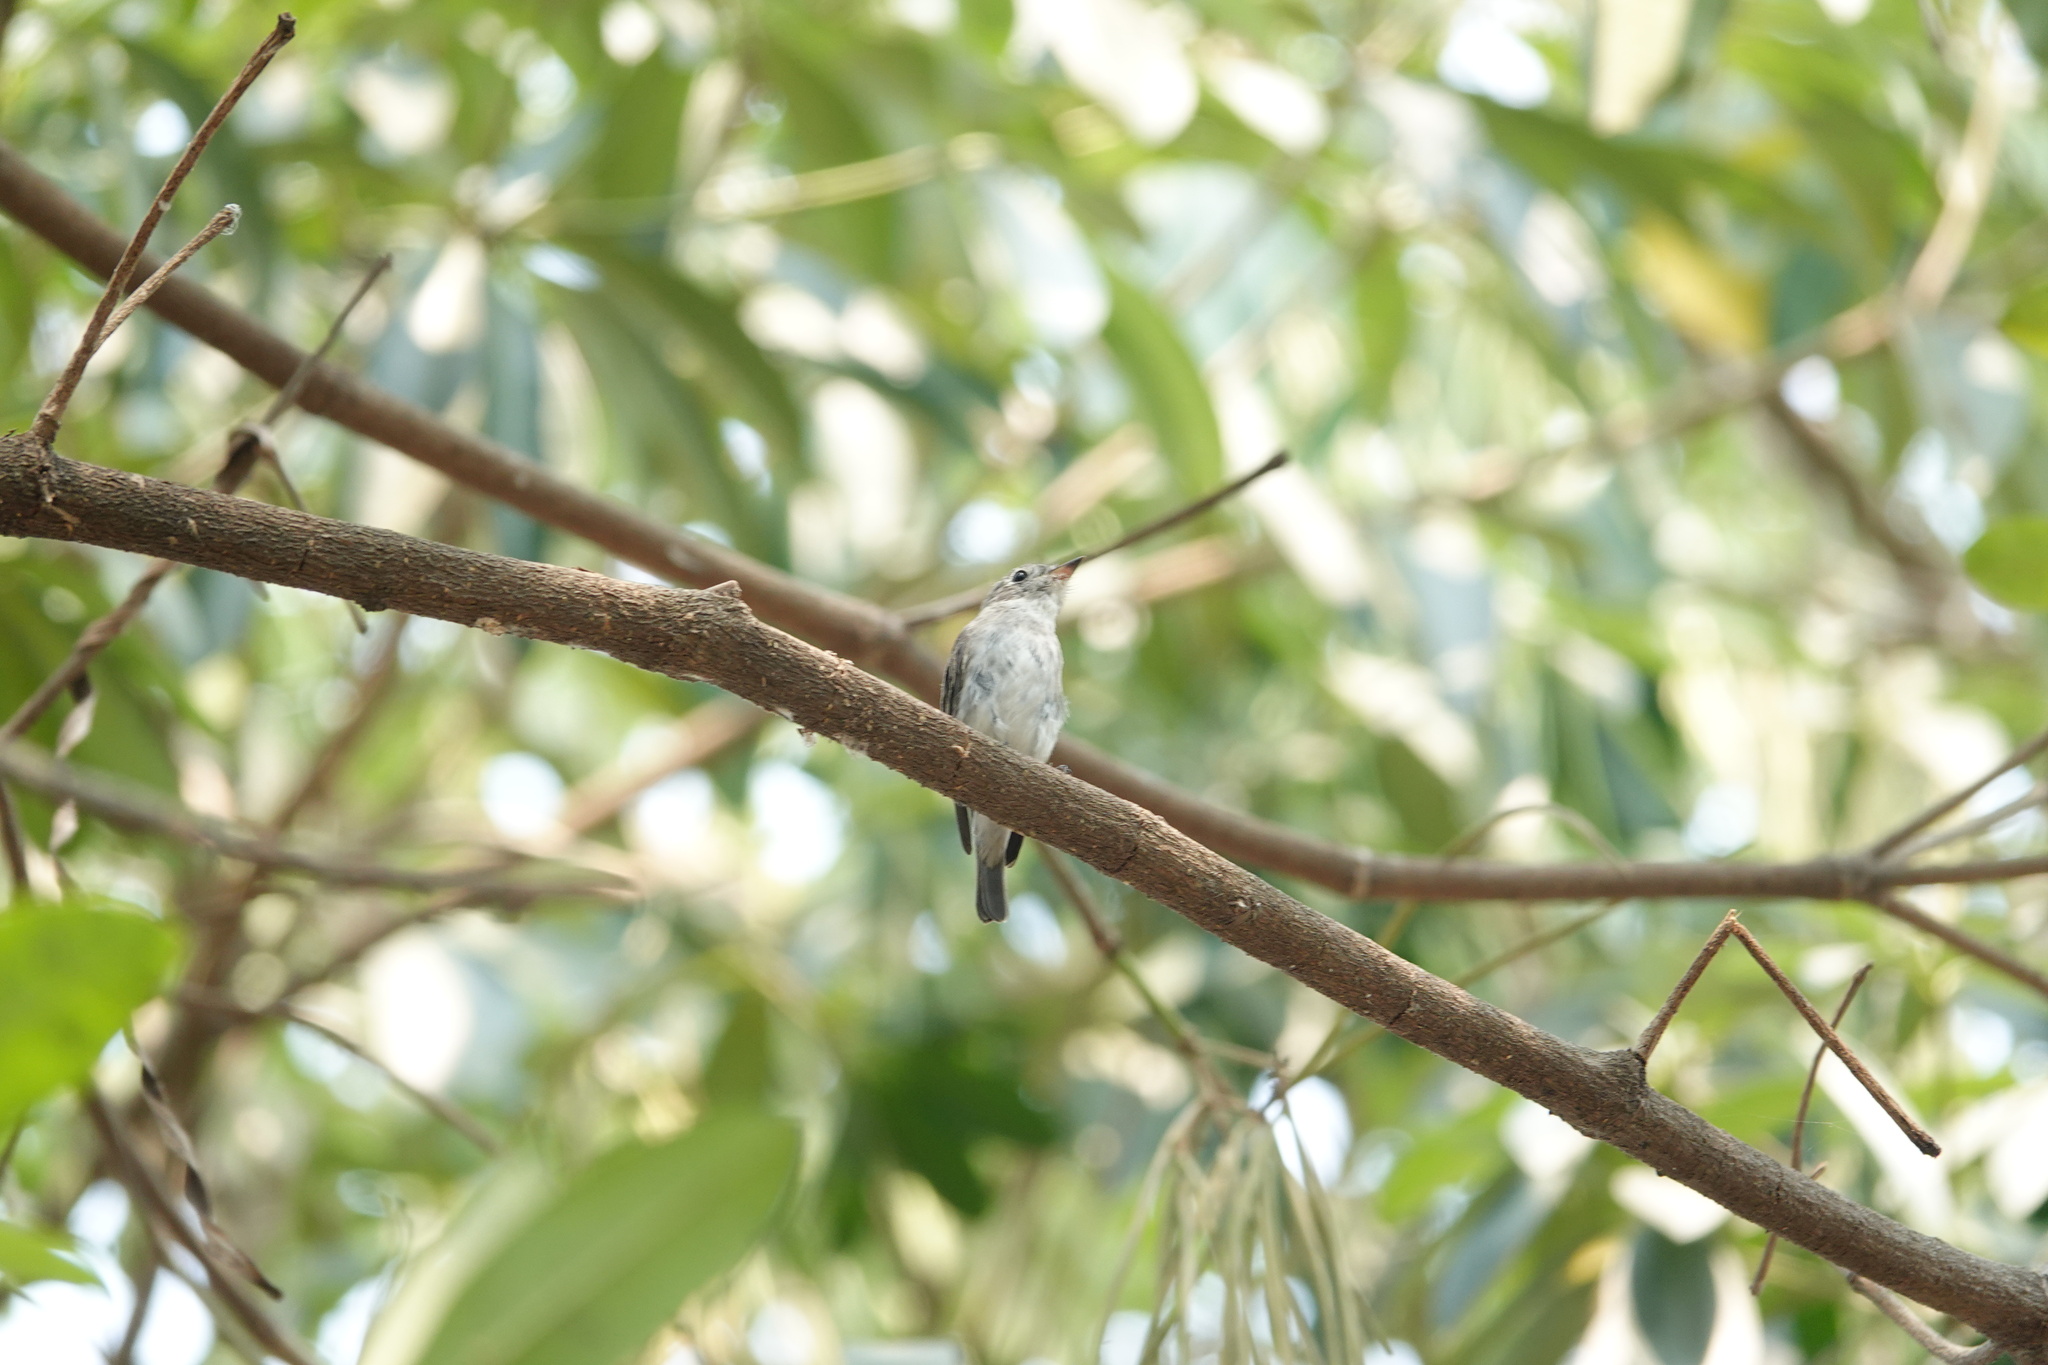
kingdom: Animalia
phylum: Chordata
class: Aves
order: Passeriformes
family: Muscicapidae
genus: Muscicapa
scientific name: Muscicapa latirostris
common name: Asian brown flycatcher
